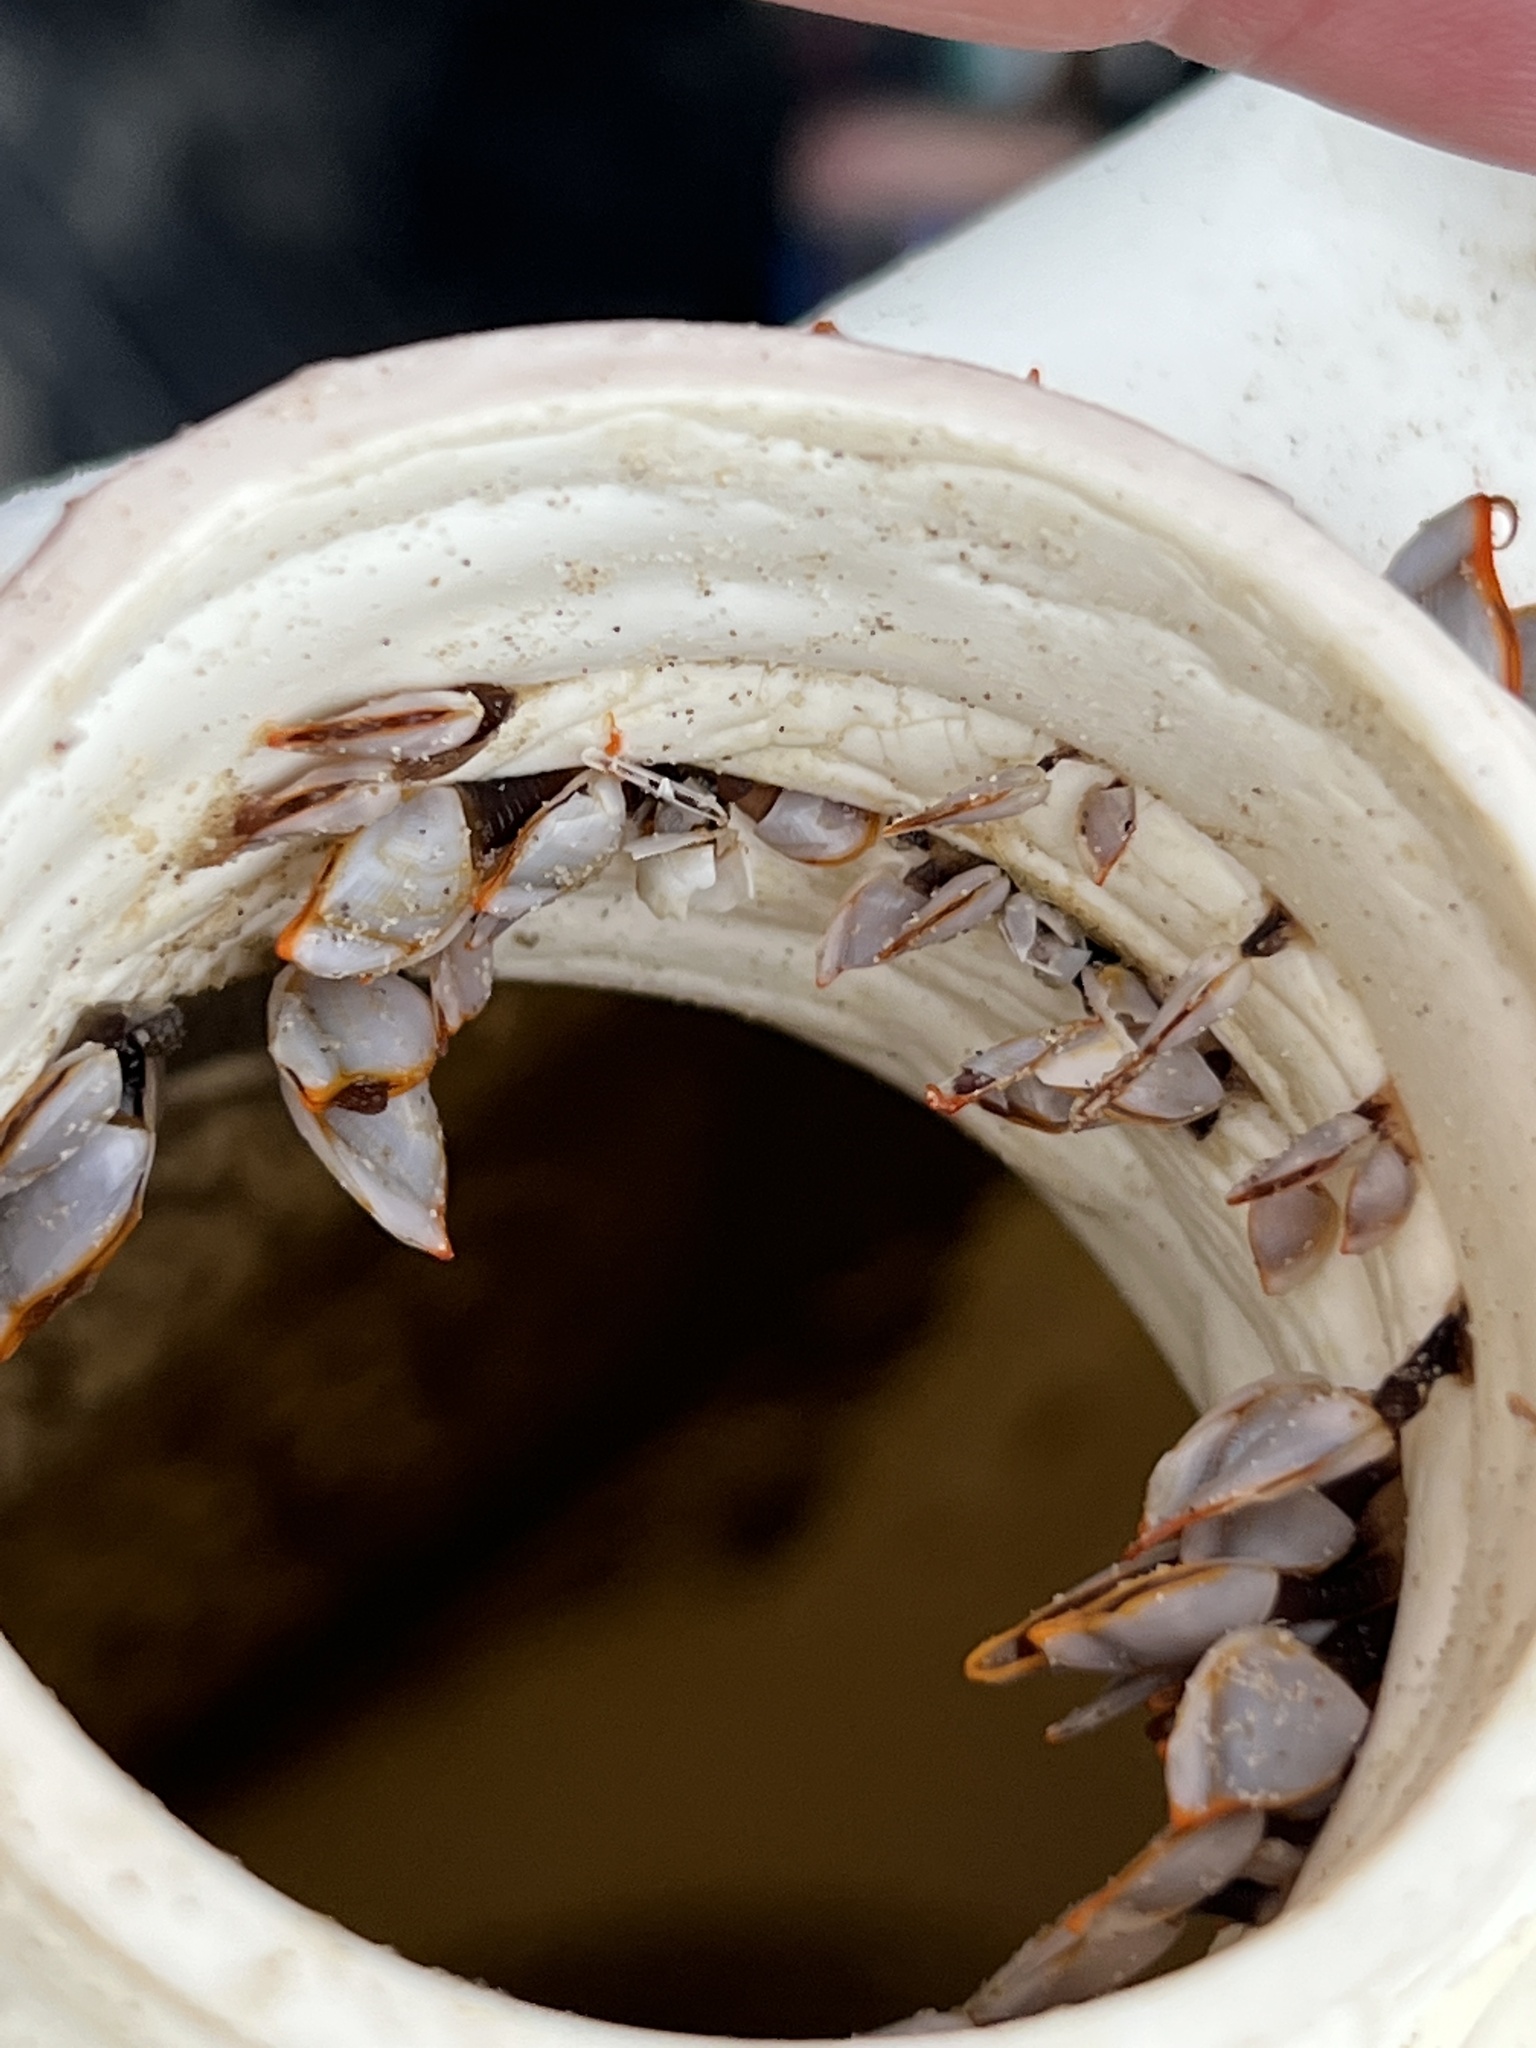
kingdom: Animalia
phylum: Arthropoda
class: Maxillopoda
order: Pedunculata
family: Lepadidae
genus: Lepas
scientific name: Lepas anserifera
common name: Goose barnacle
